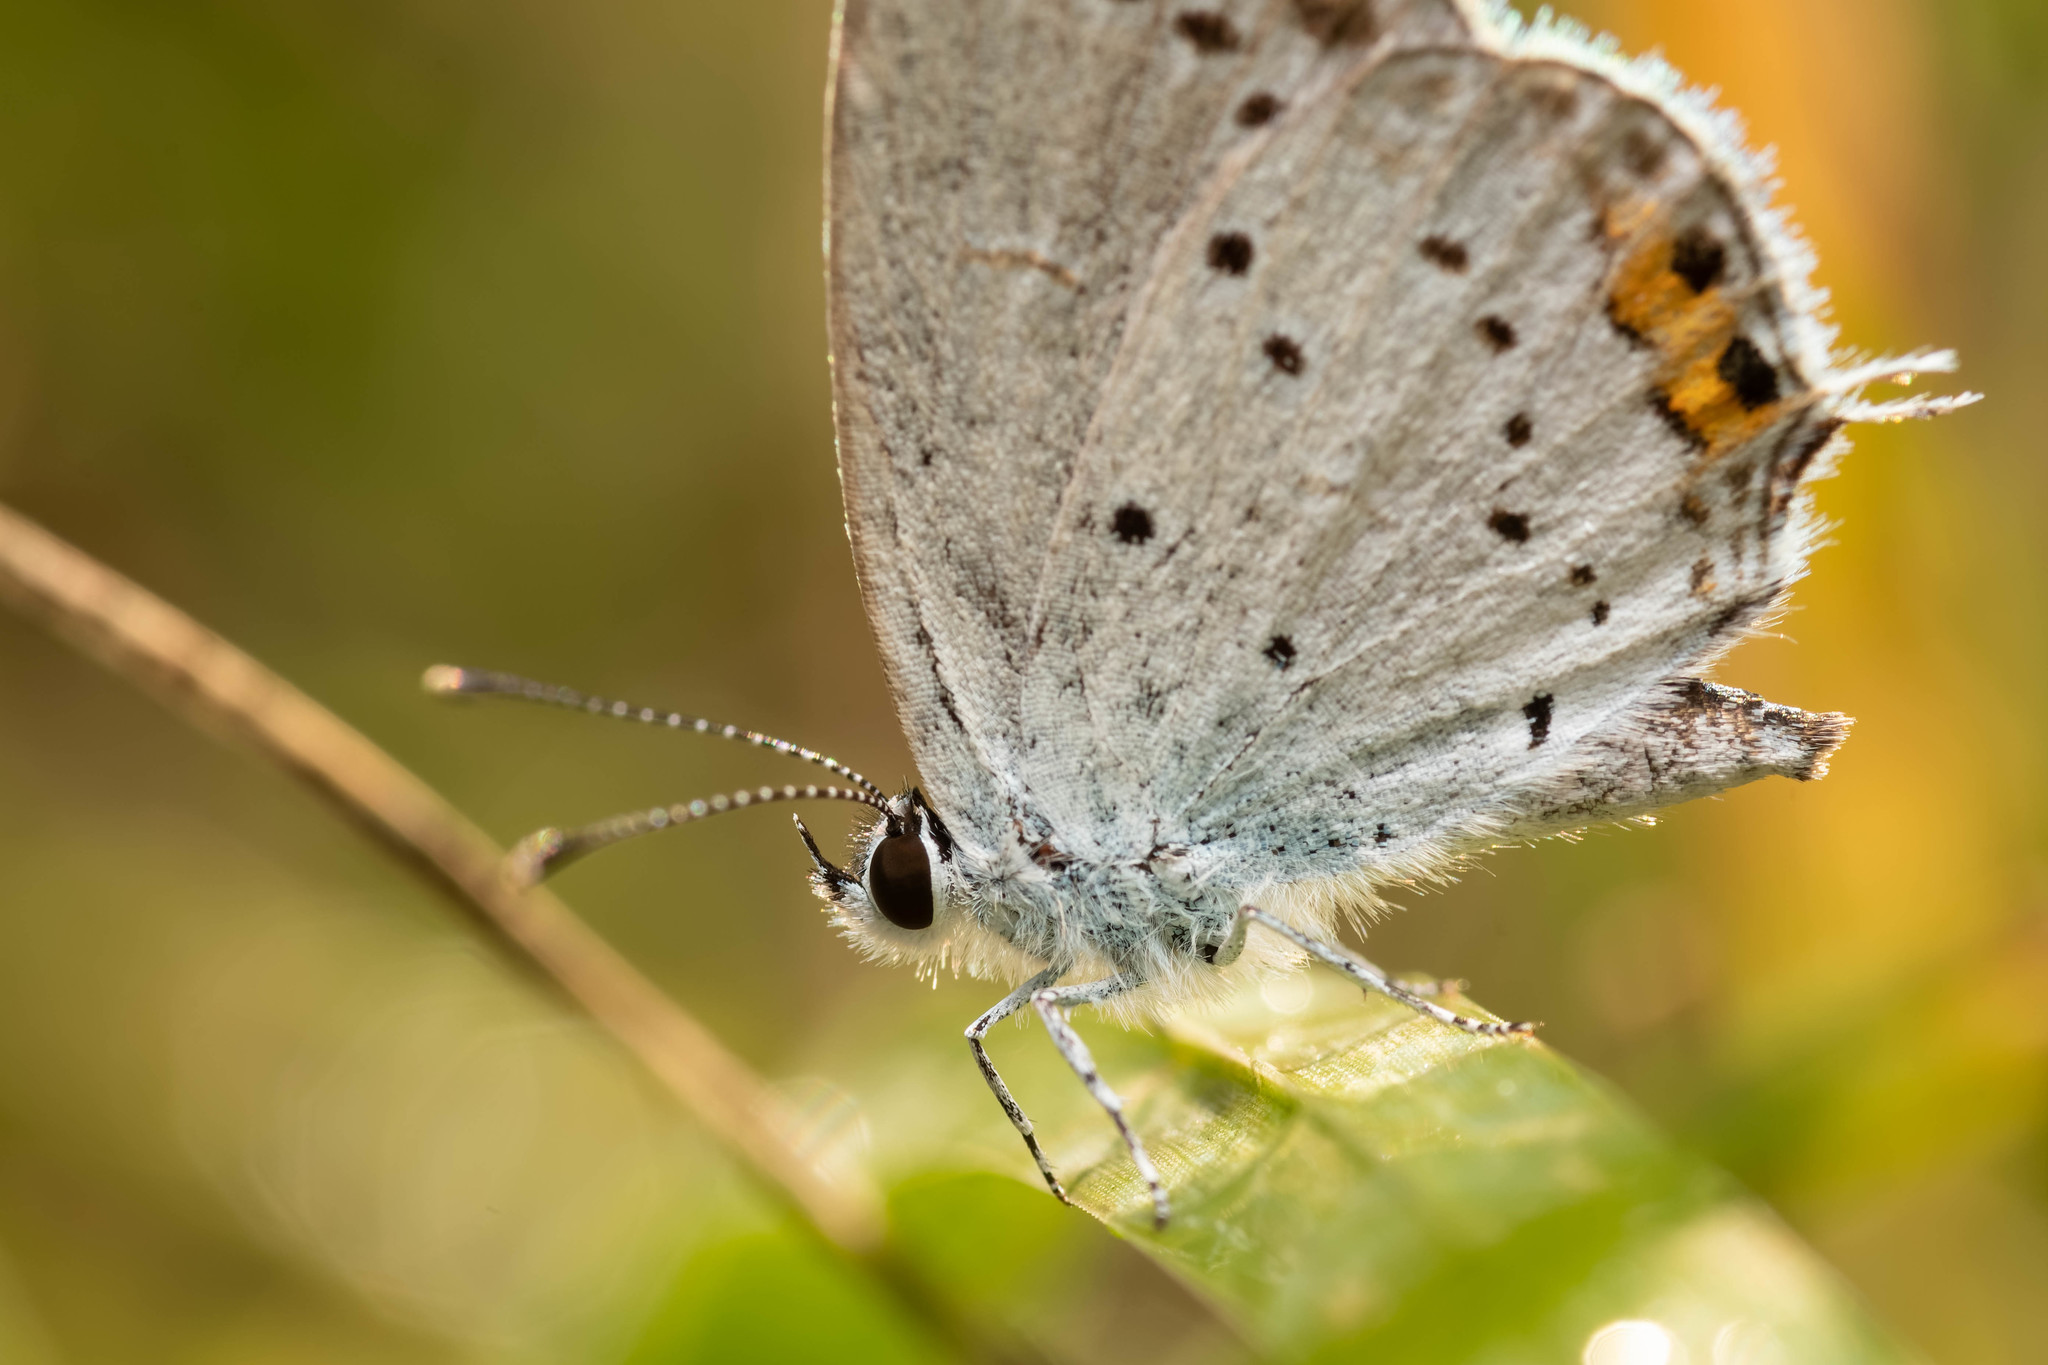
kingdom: Animalia
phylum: Arthropoda
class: Insecta
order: Lepidoptera
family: Lycaenidae
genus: Elkalyce
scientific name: Elkalyce argiades
